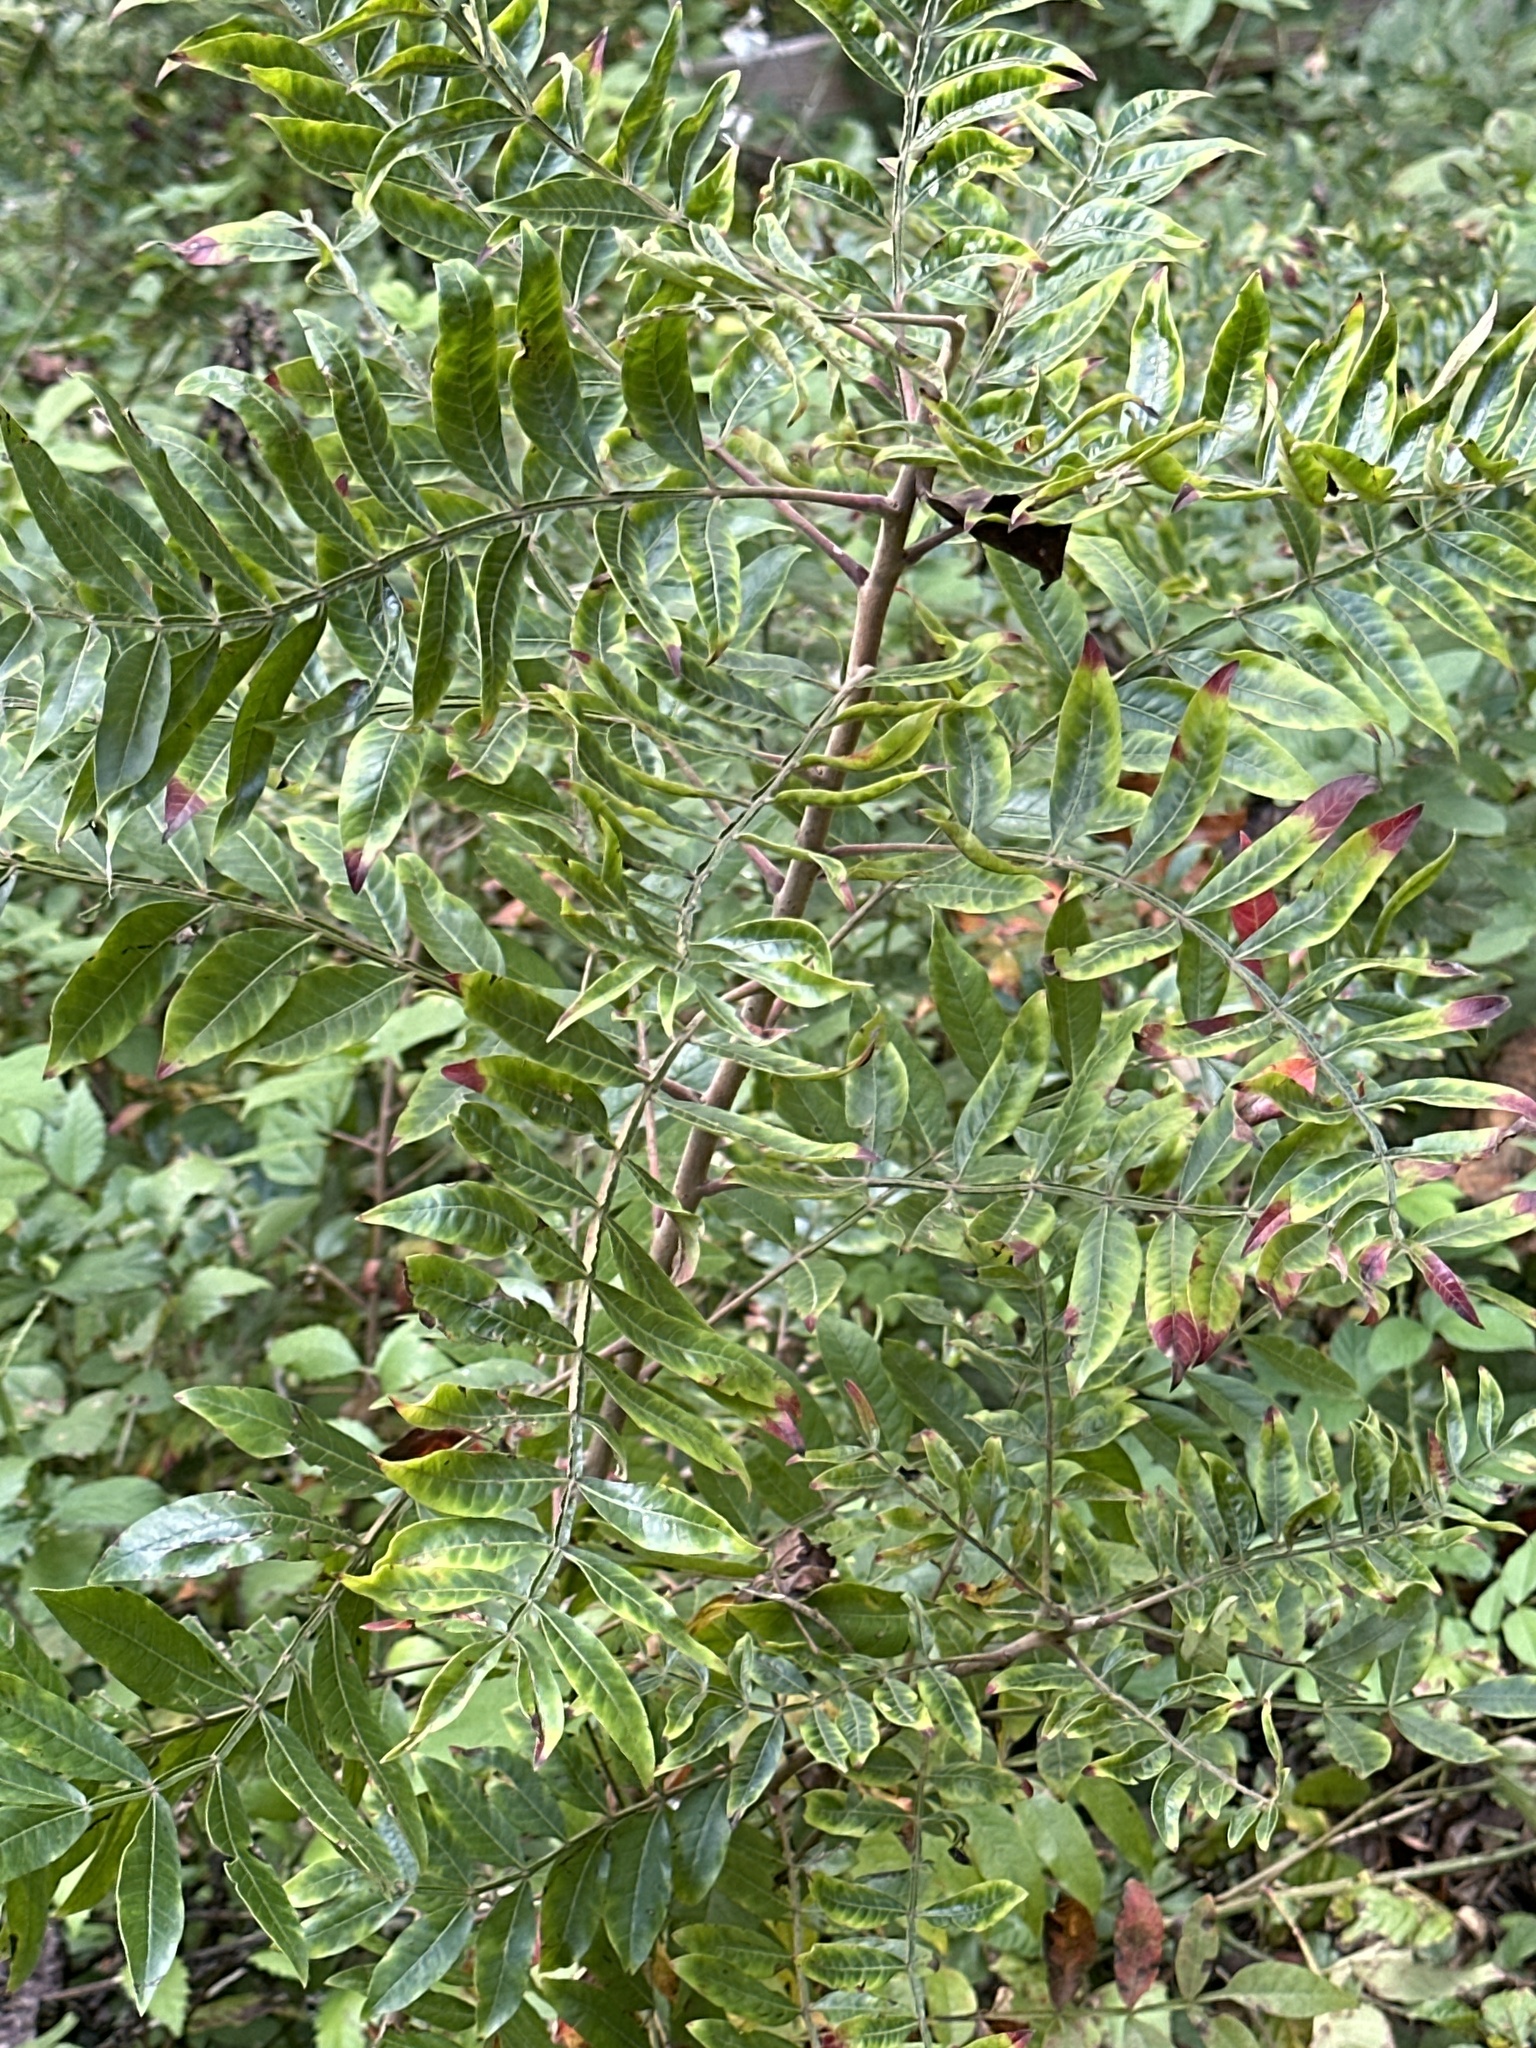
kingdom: Plantae
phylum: Tracheophyta
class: Magnoliopsida
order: Sapindales
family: Anacardiaceae
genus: Rhus
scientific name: Rhus copallina
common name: Shining sumac
